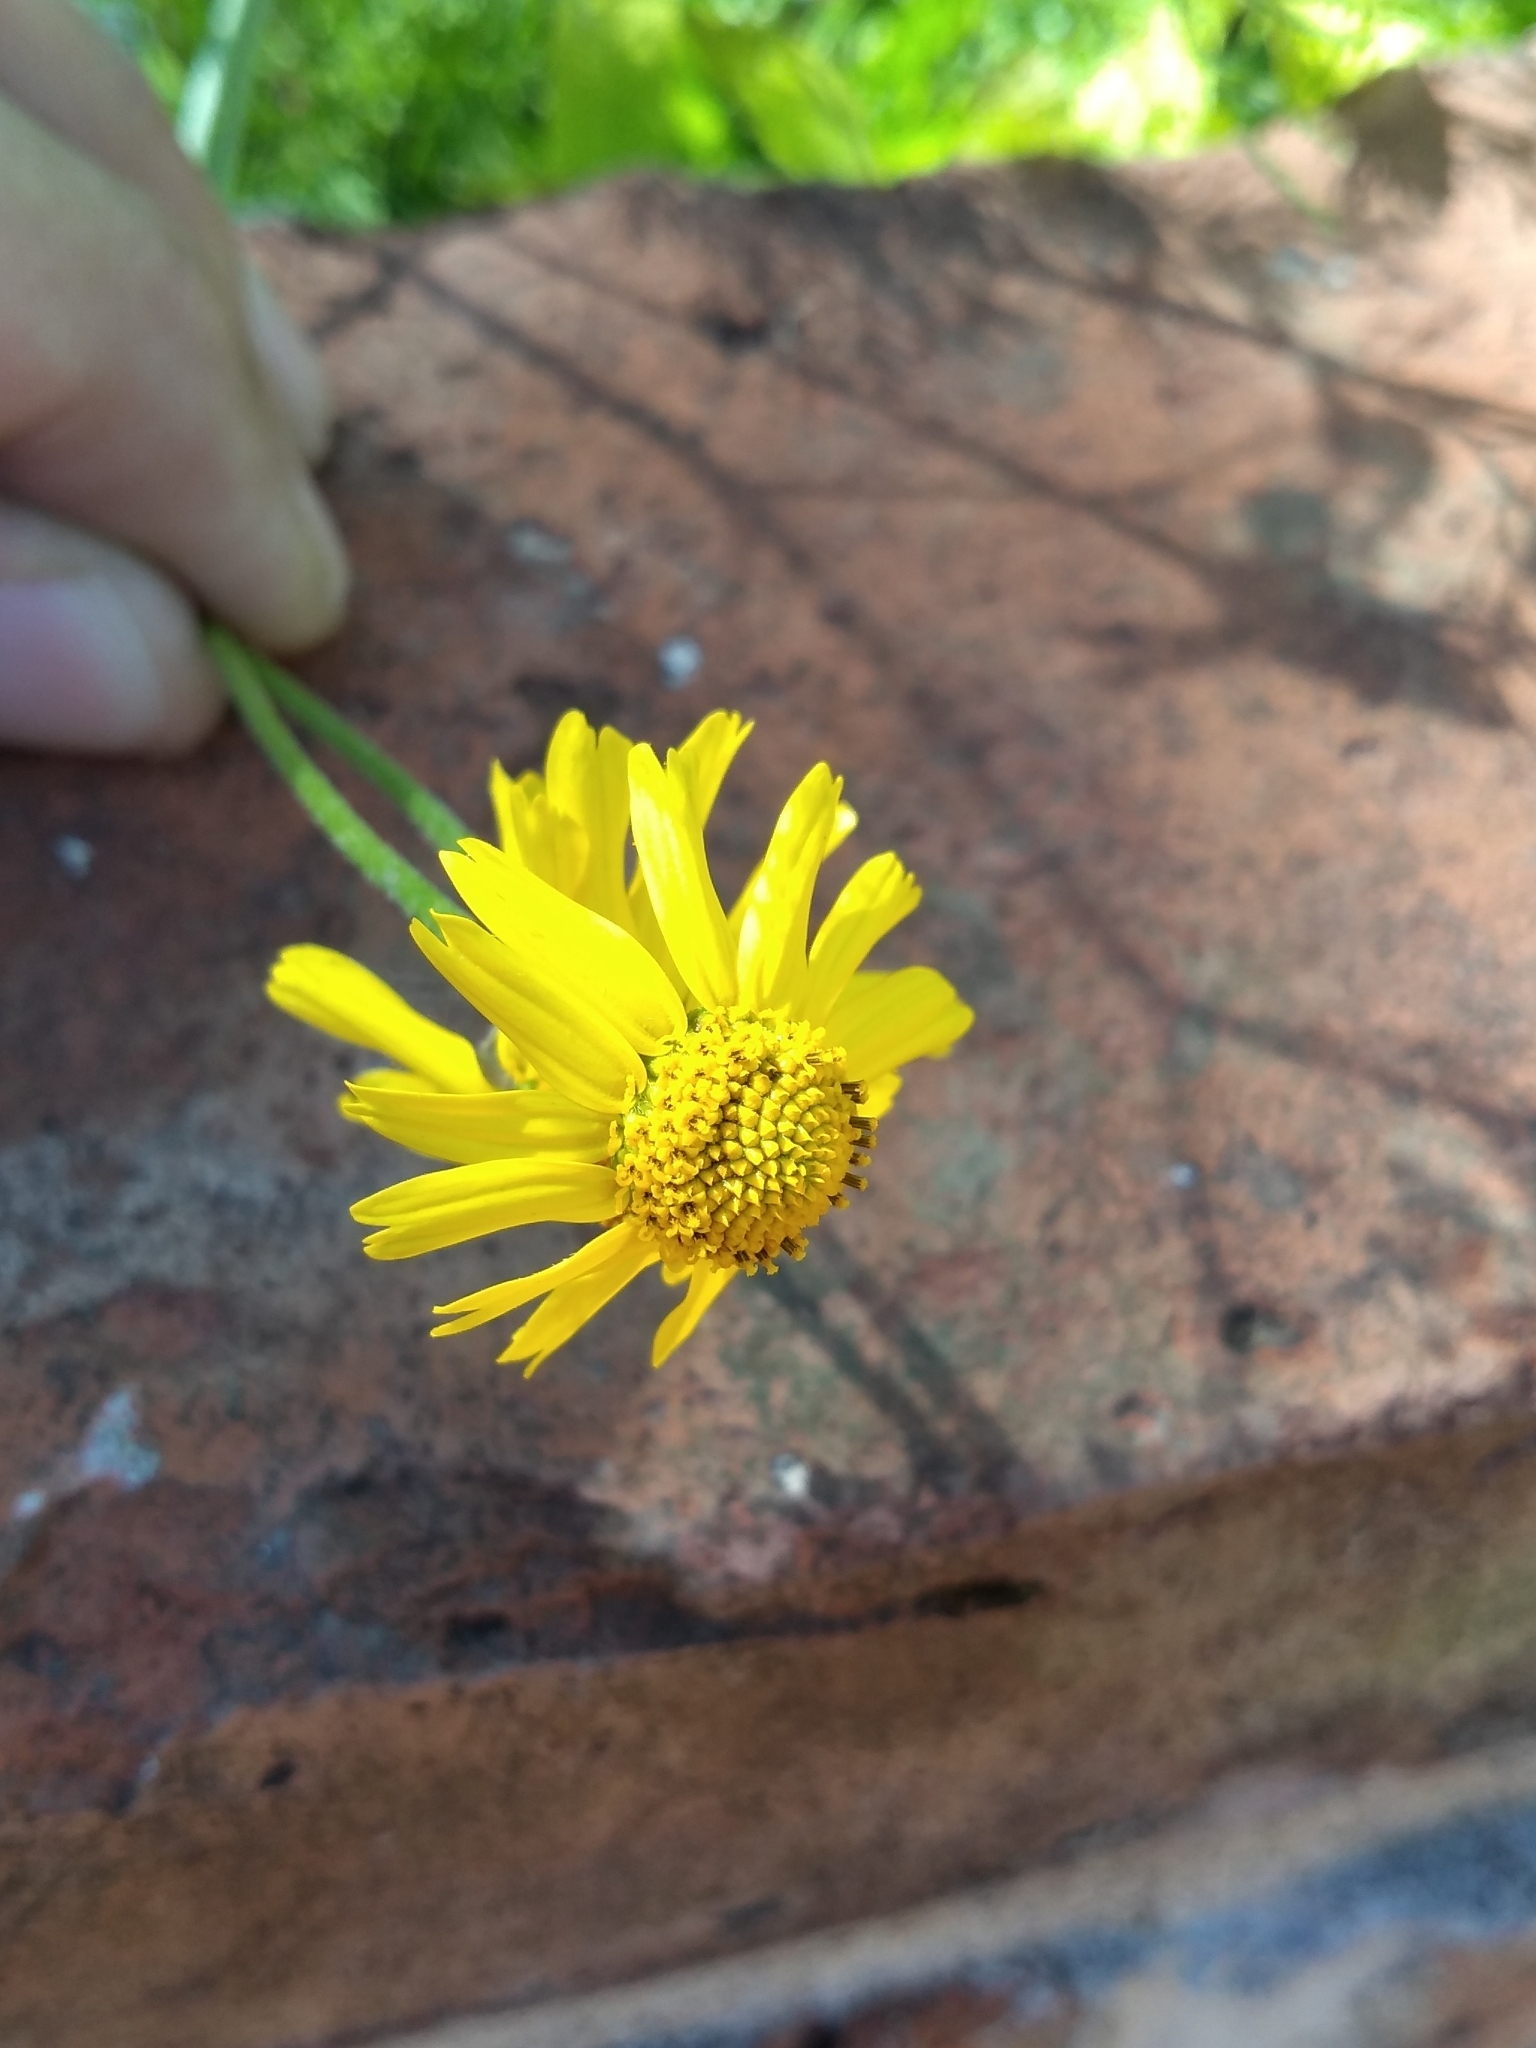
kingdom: Plantae
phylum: Tracheophyta
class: Magnoliopsida
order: Asterales
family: Asteraceae
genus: Acmella
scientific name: Acmella decumbens
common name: Creeping spotflower
